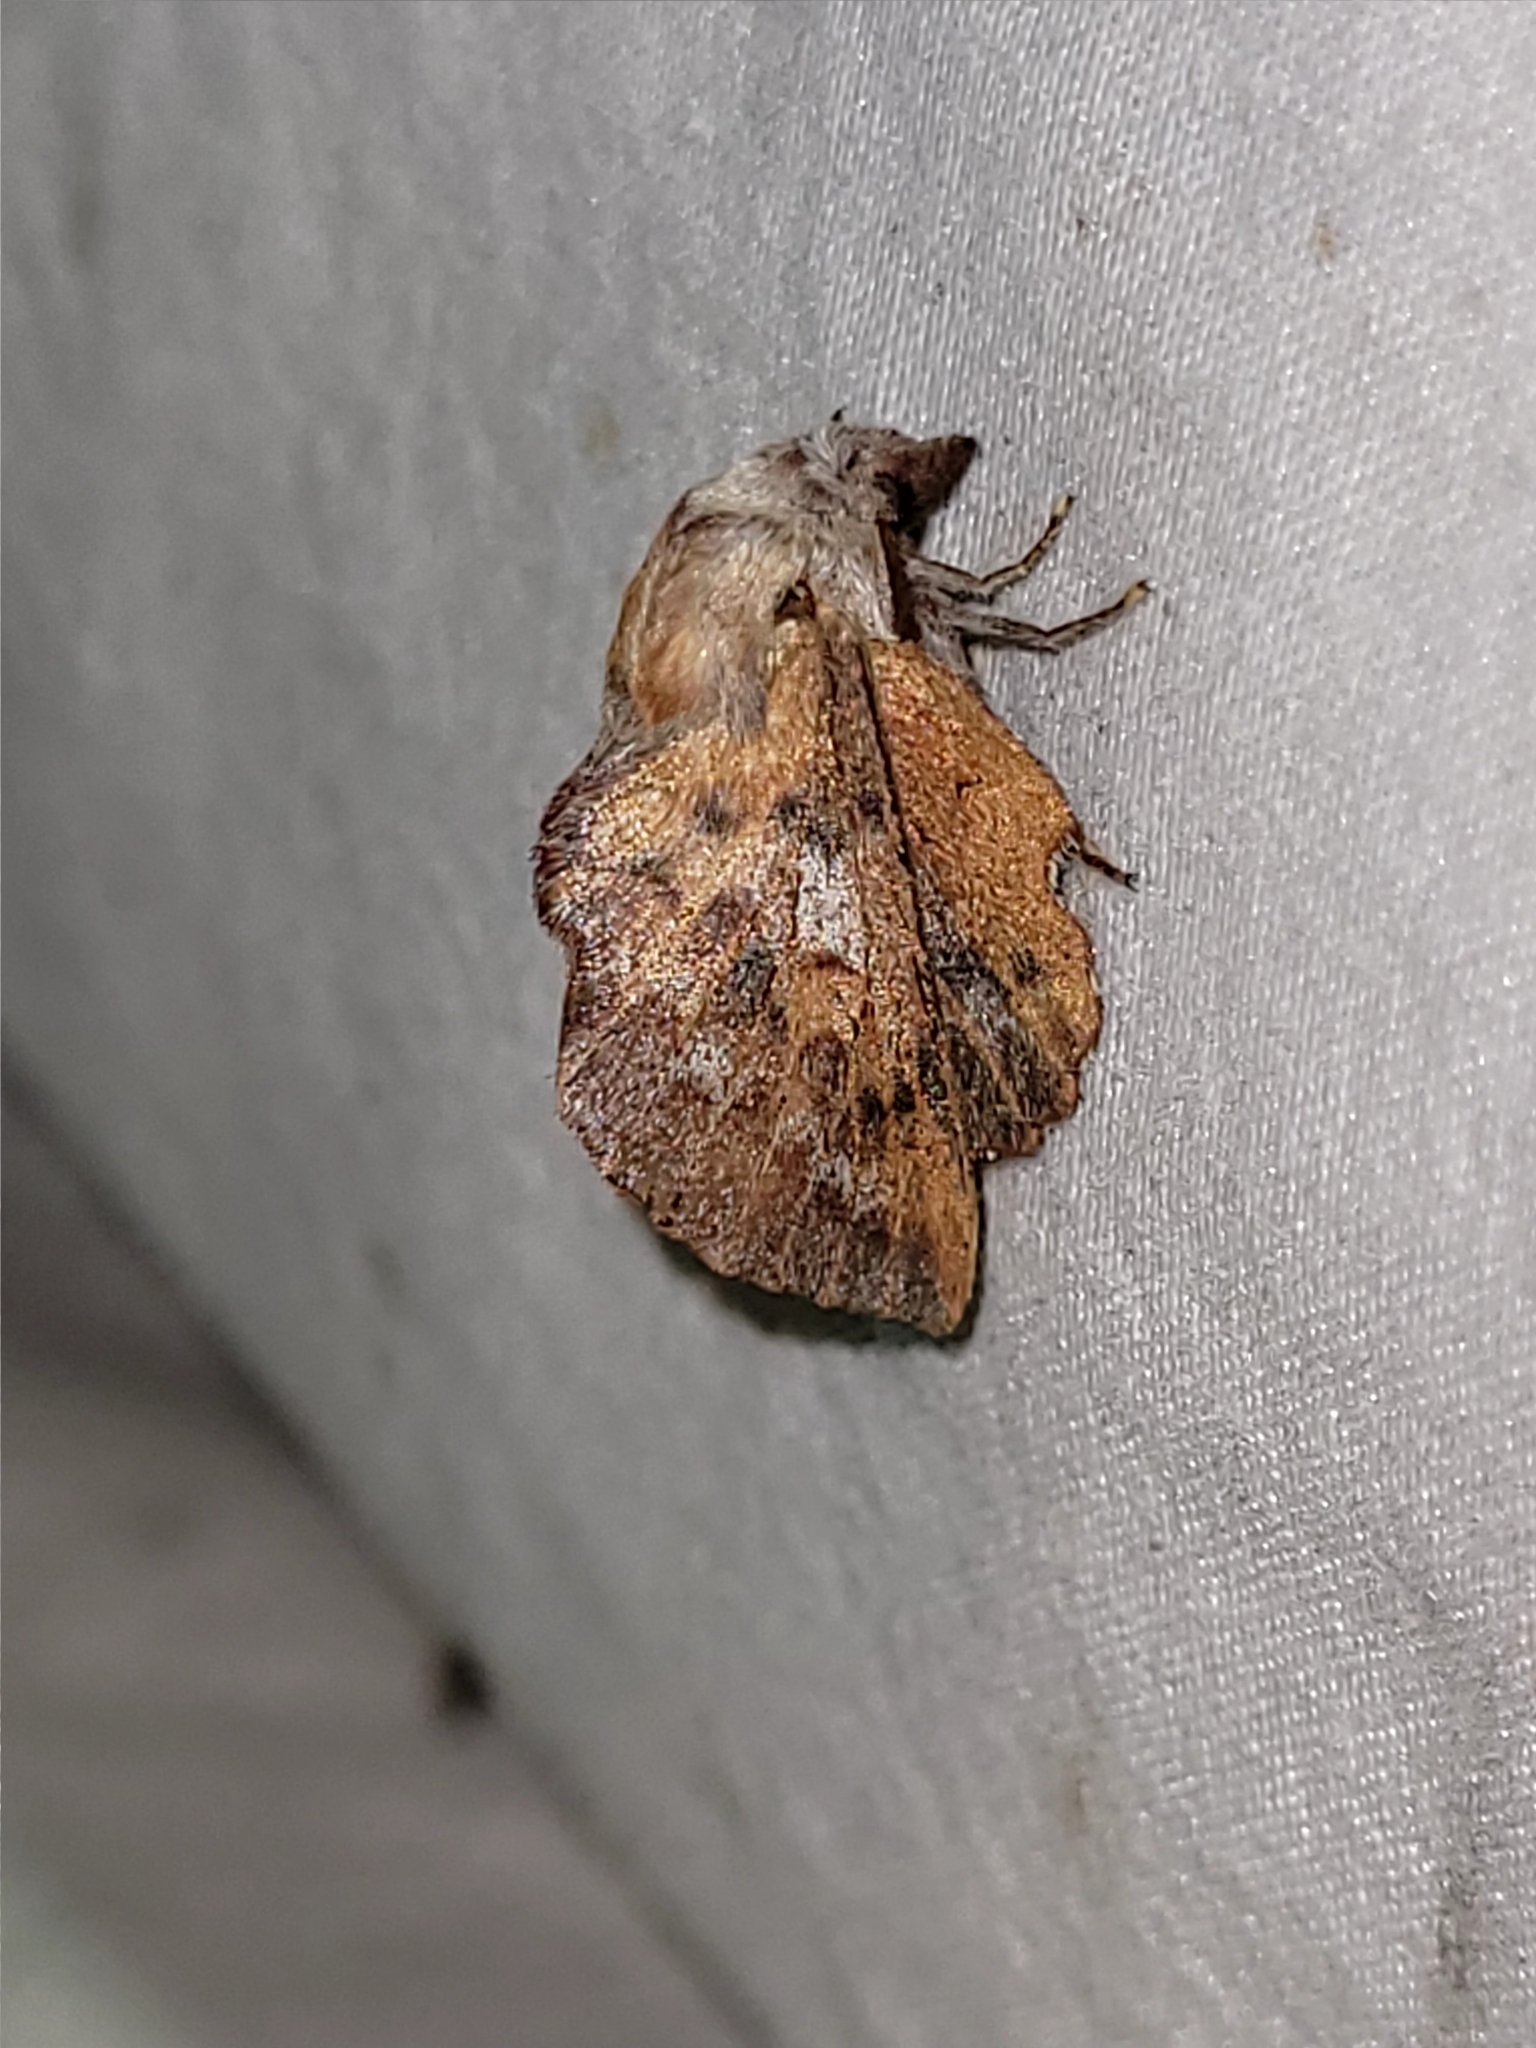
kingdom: Animalia
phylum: Arthropoda
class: Insecta
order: Lepidoptera
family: Lasiocampidae
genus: Phyllodesma
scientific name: Phyllodesma americana
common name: American lappet moth
